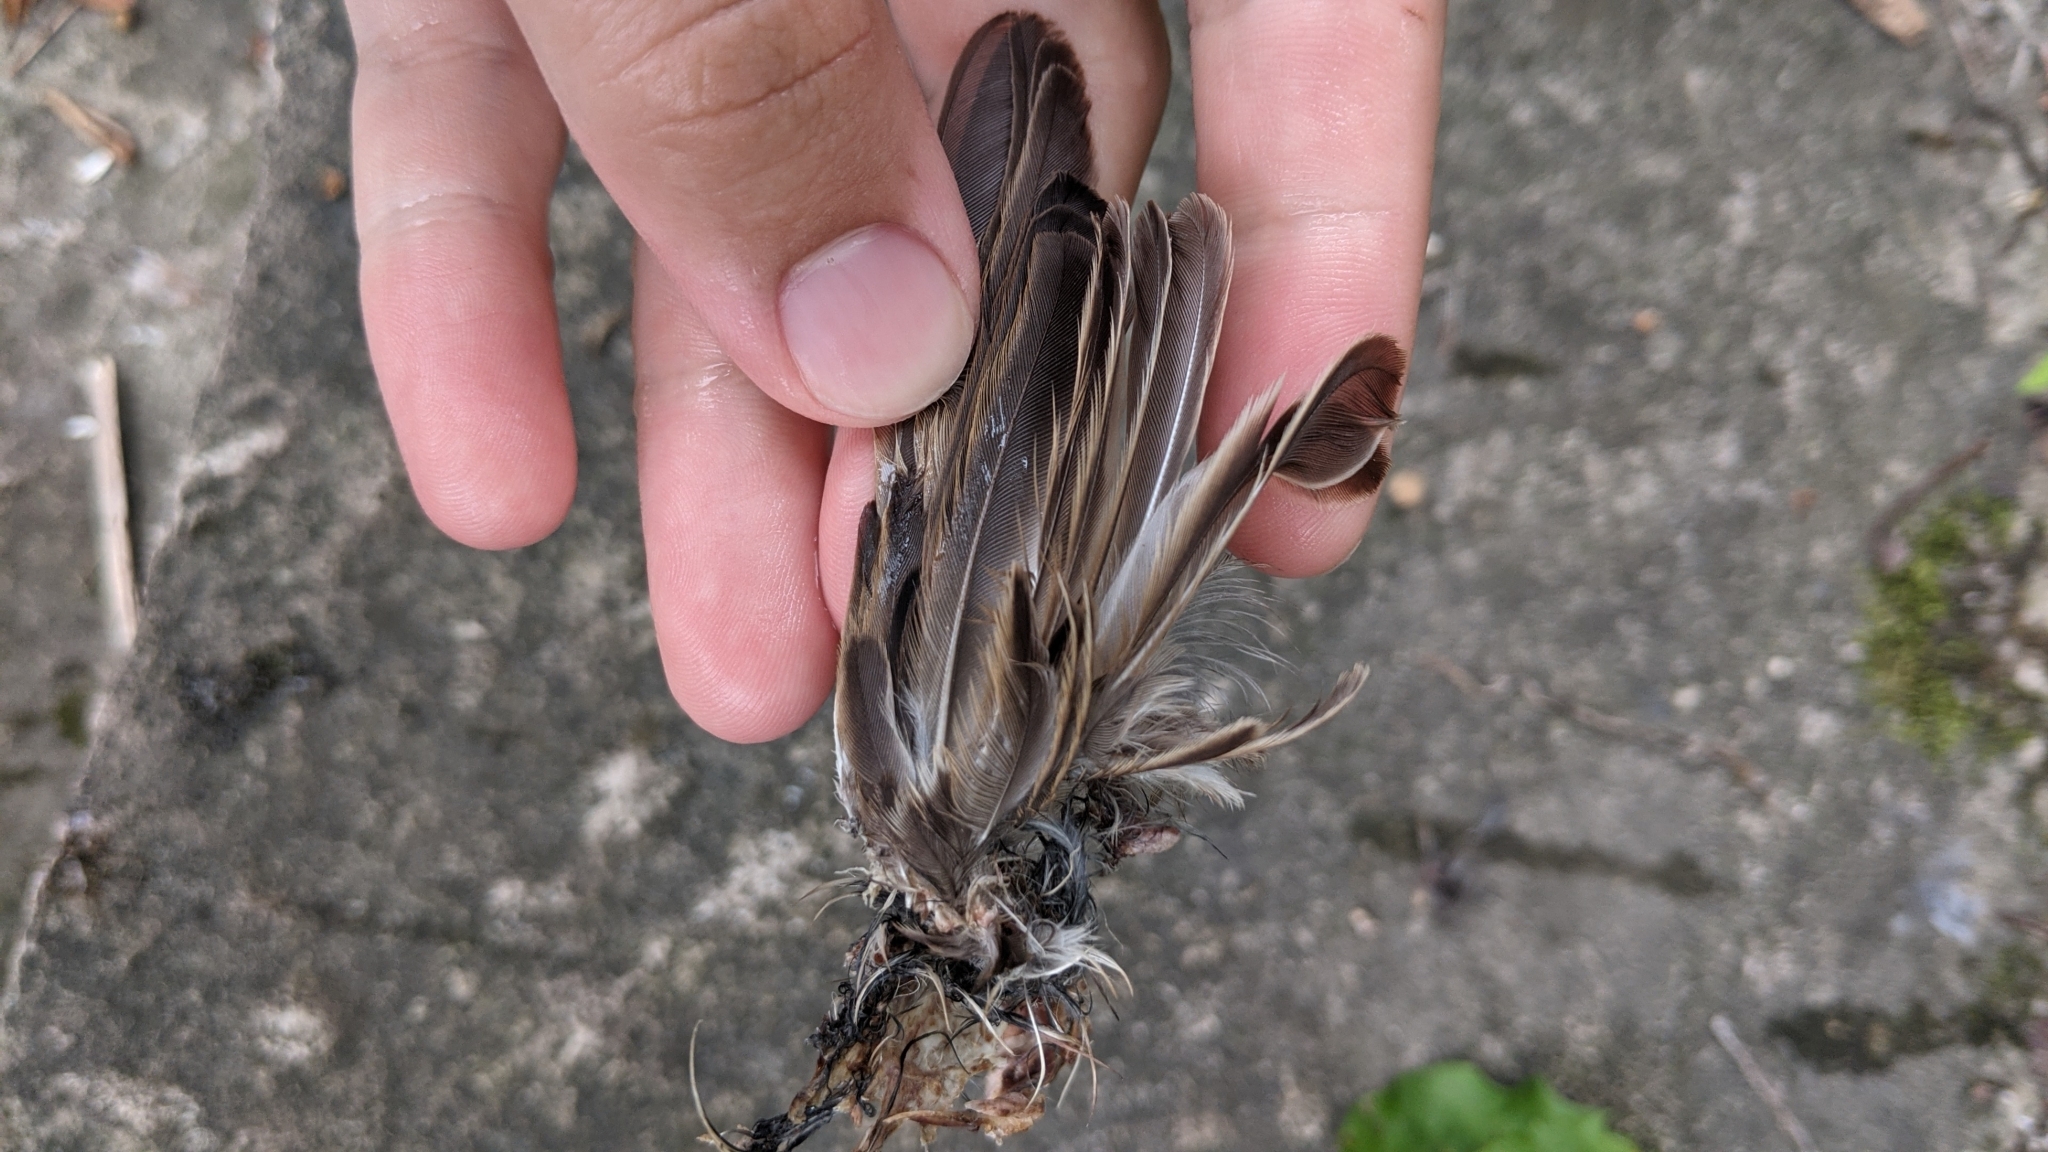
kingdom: Animalia
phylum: Chordata
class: Aves
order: Passeriformes
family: Passeridae
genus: Passer
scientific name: Passer domesticus
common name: House sparrow
